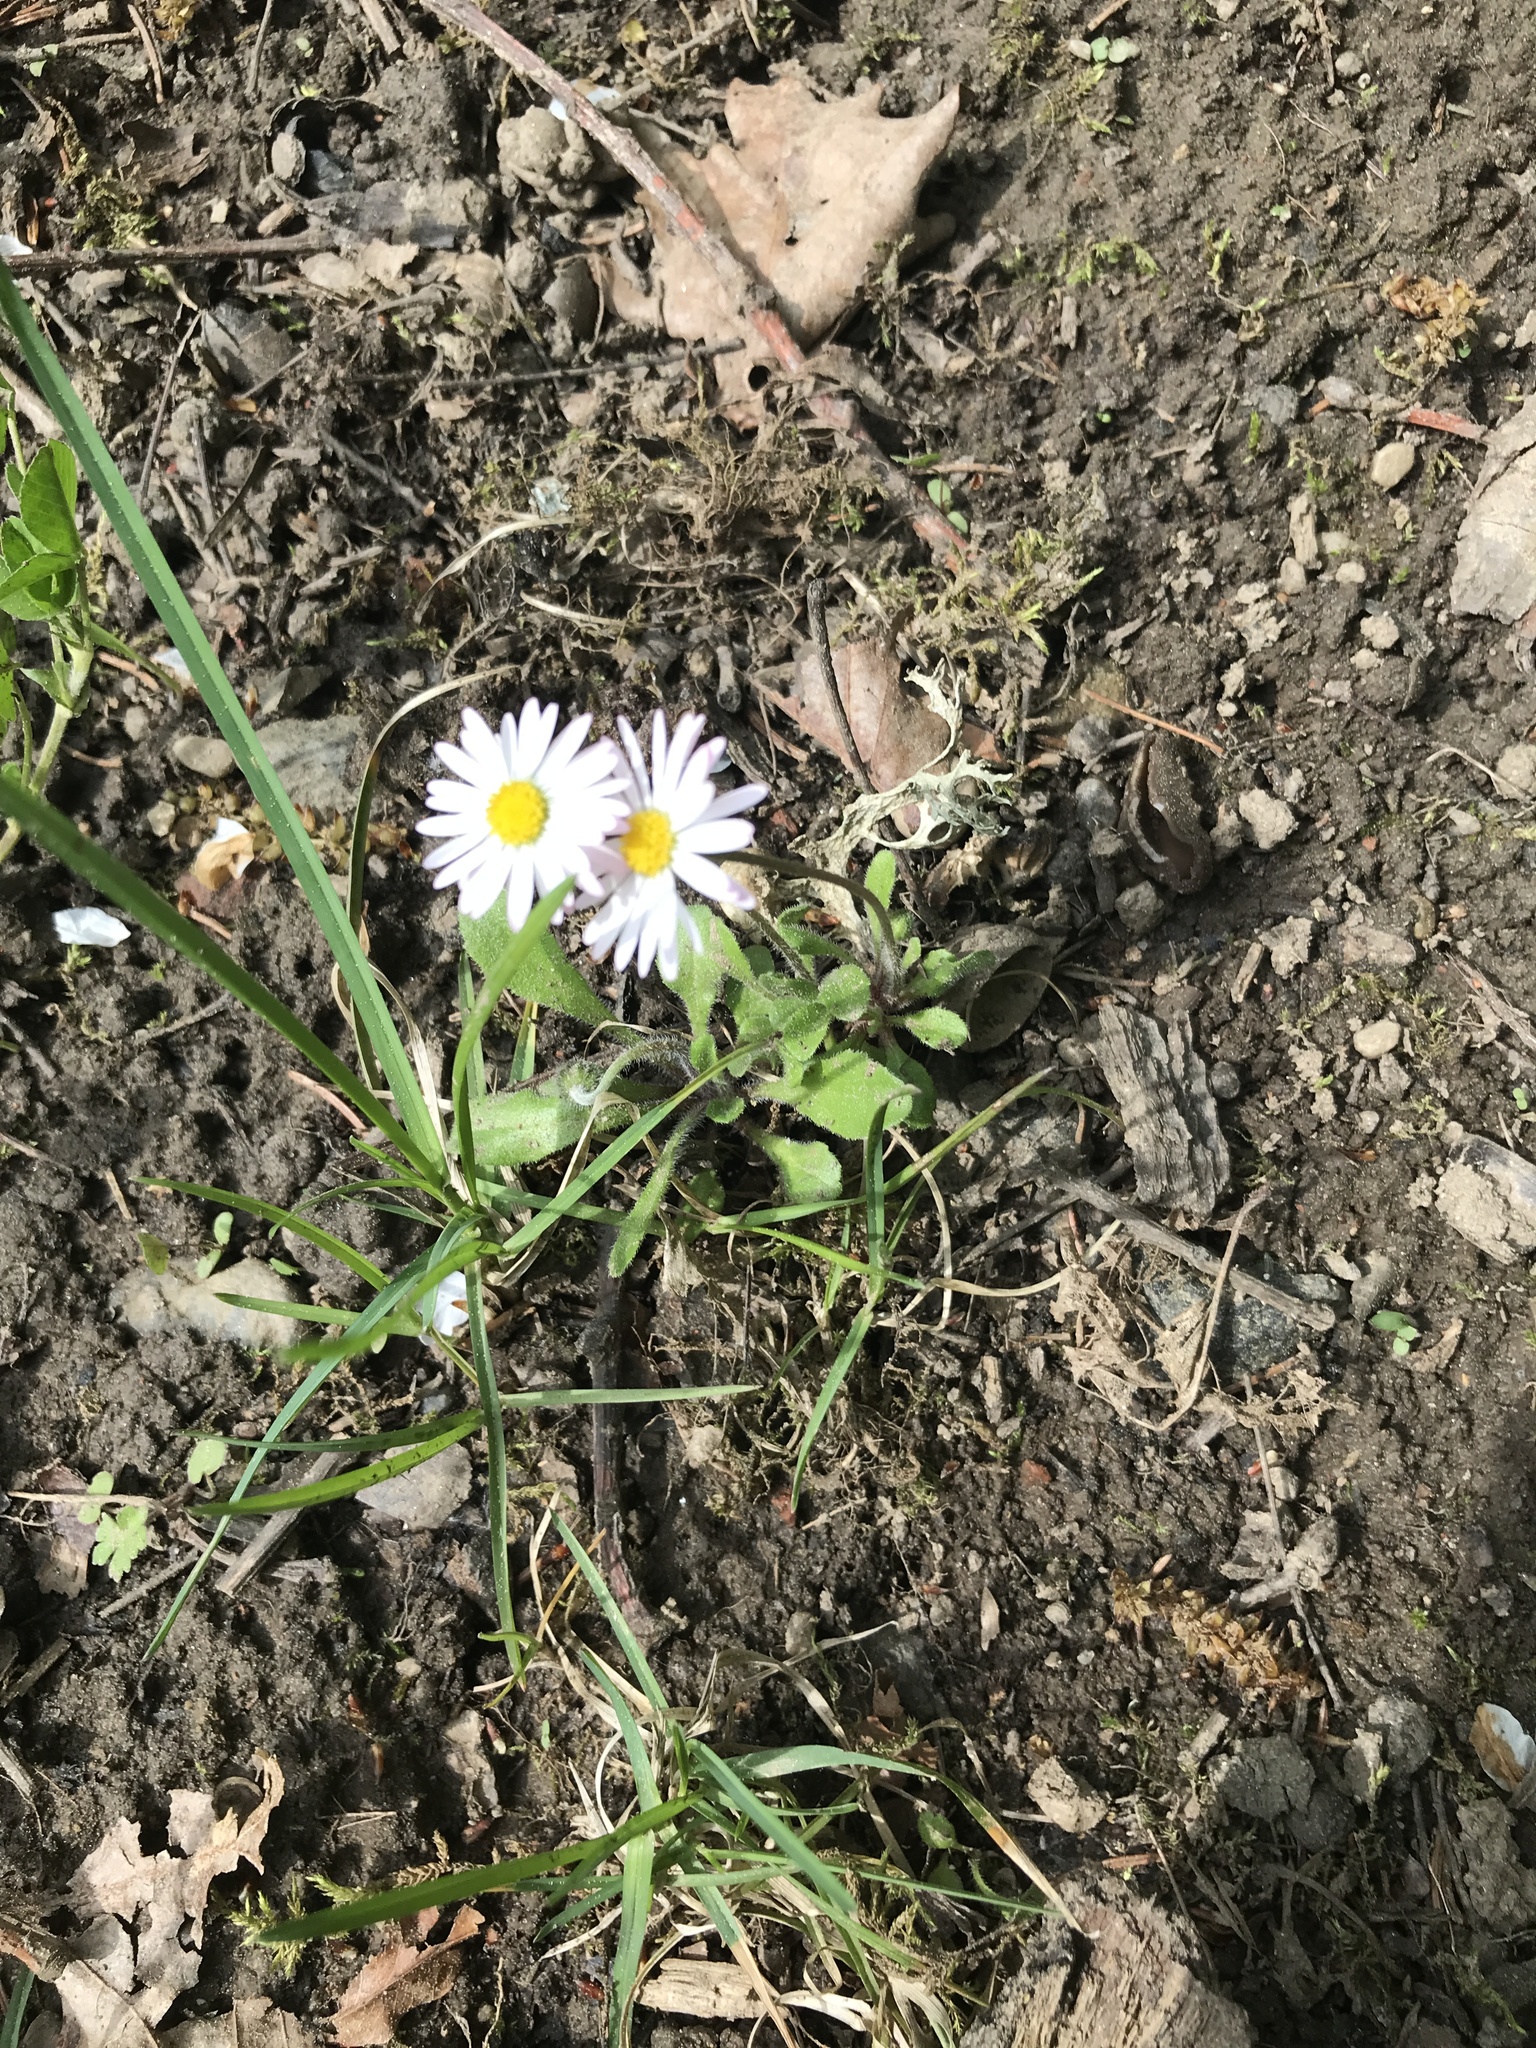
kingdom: Plantae
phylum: Tracheophyta
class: Magnoliopsida
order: Asterales
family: Asteraceae
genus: Bellis
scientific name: Bellis perennis
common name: Lawndaisy
